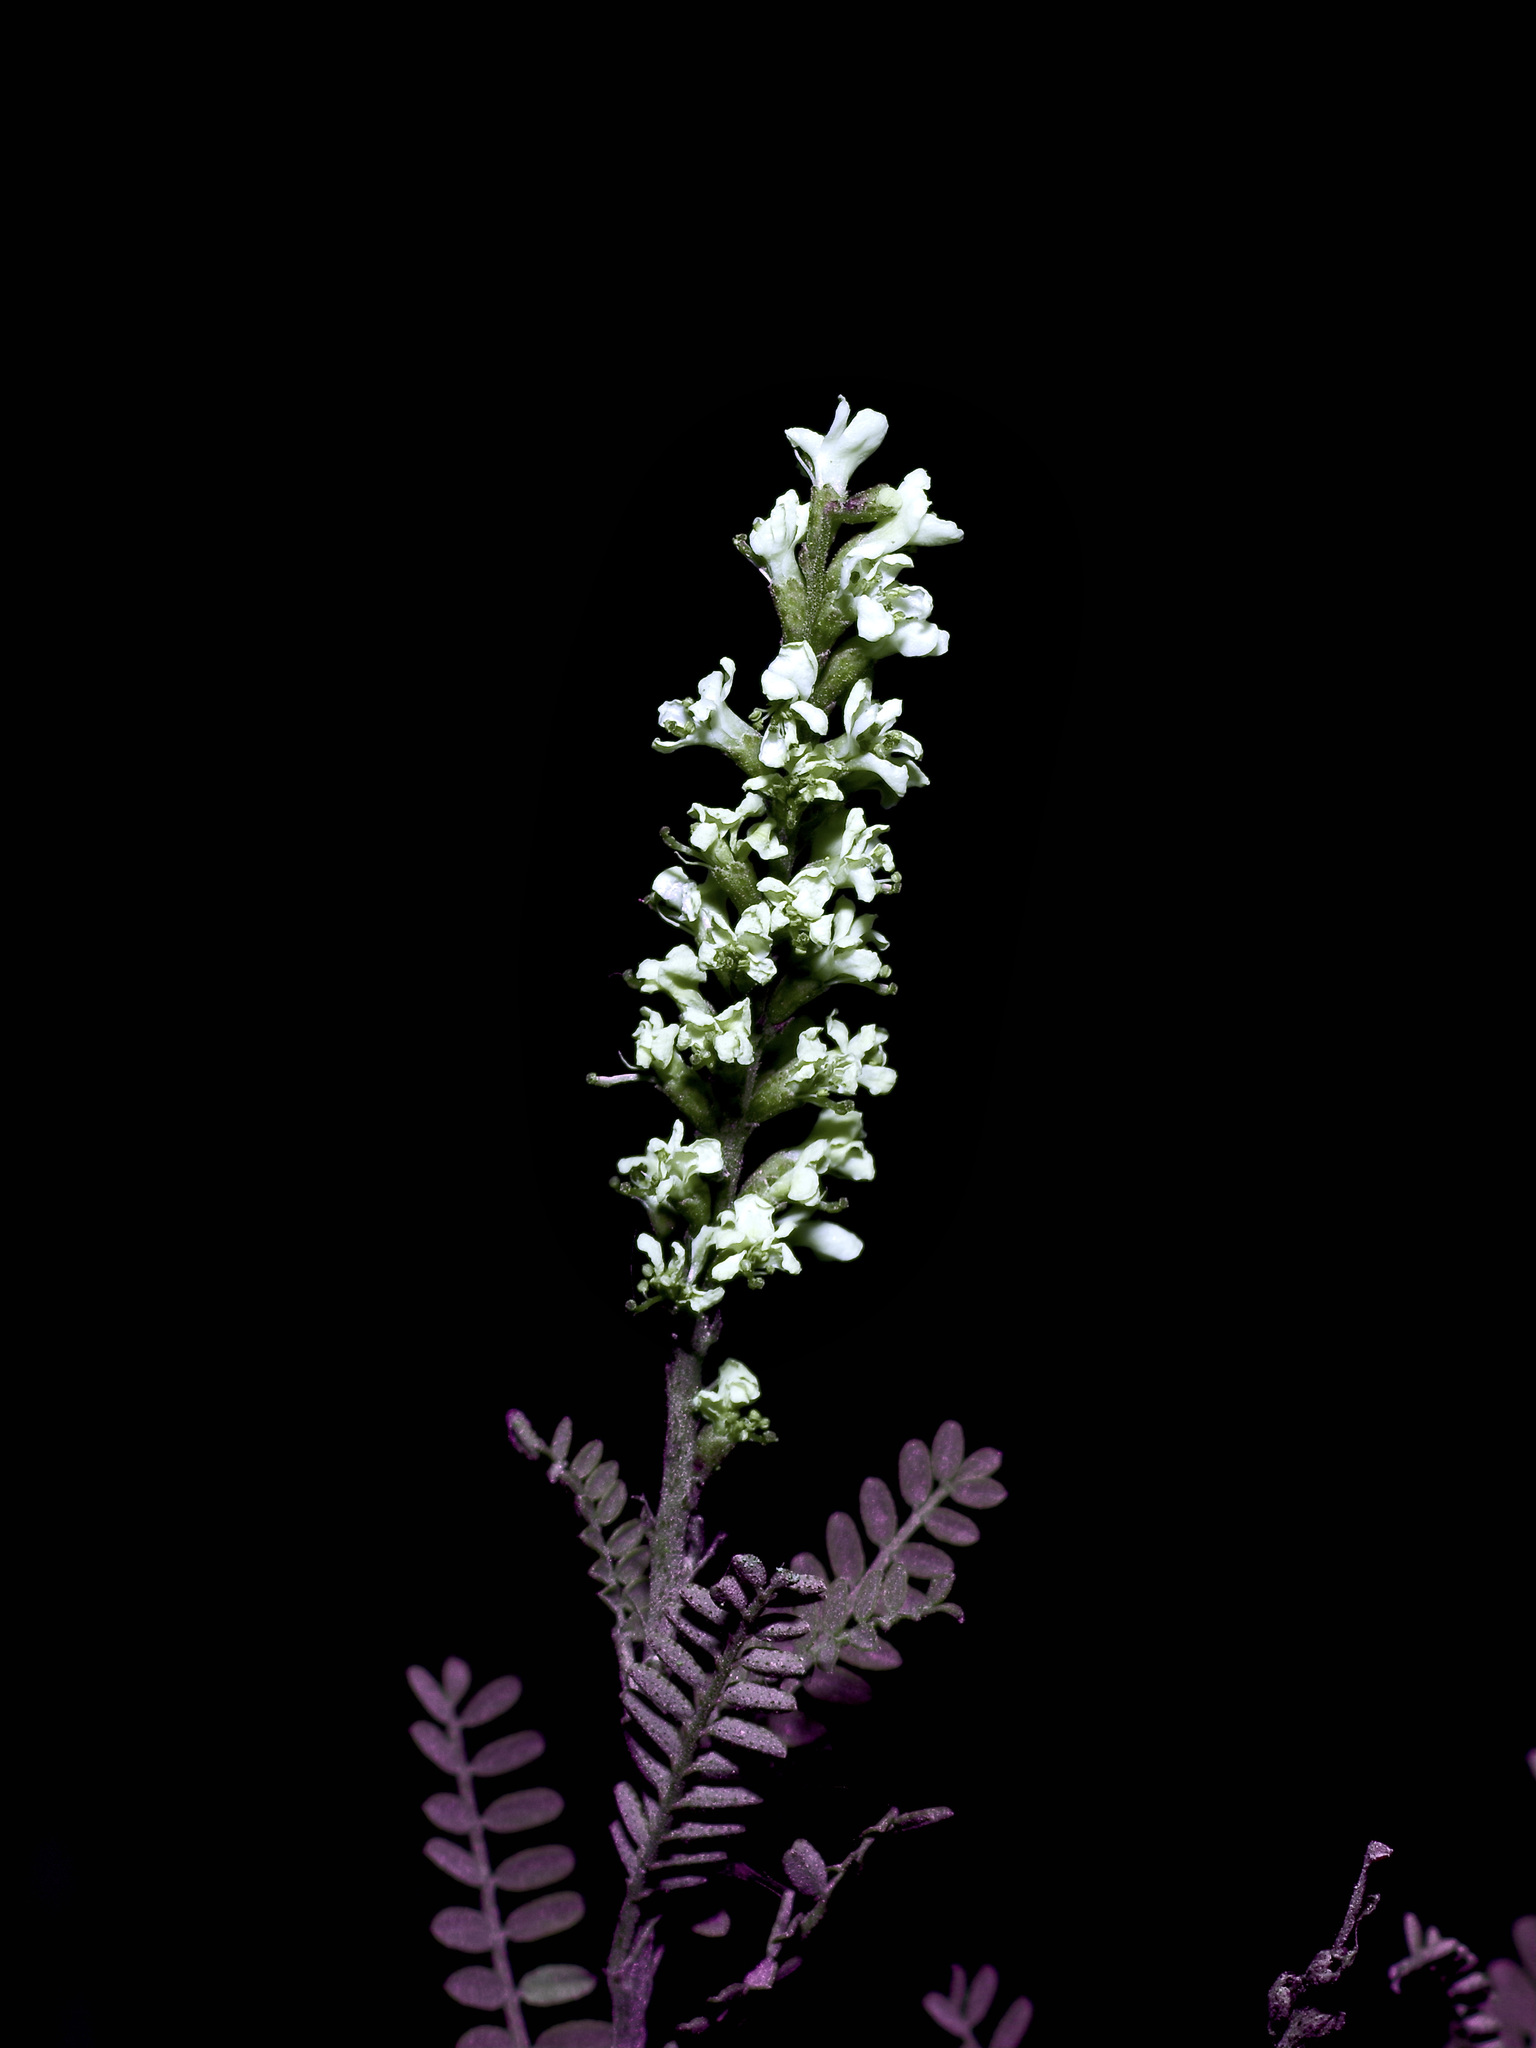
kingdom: Plantae
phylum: Tracheophyta
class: Magnoliopsida
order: Fabales
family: Fabaceae
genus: Eysenhardtia
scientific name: Eysenhardtia texana
